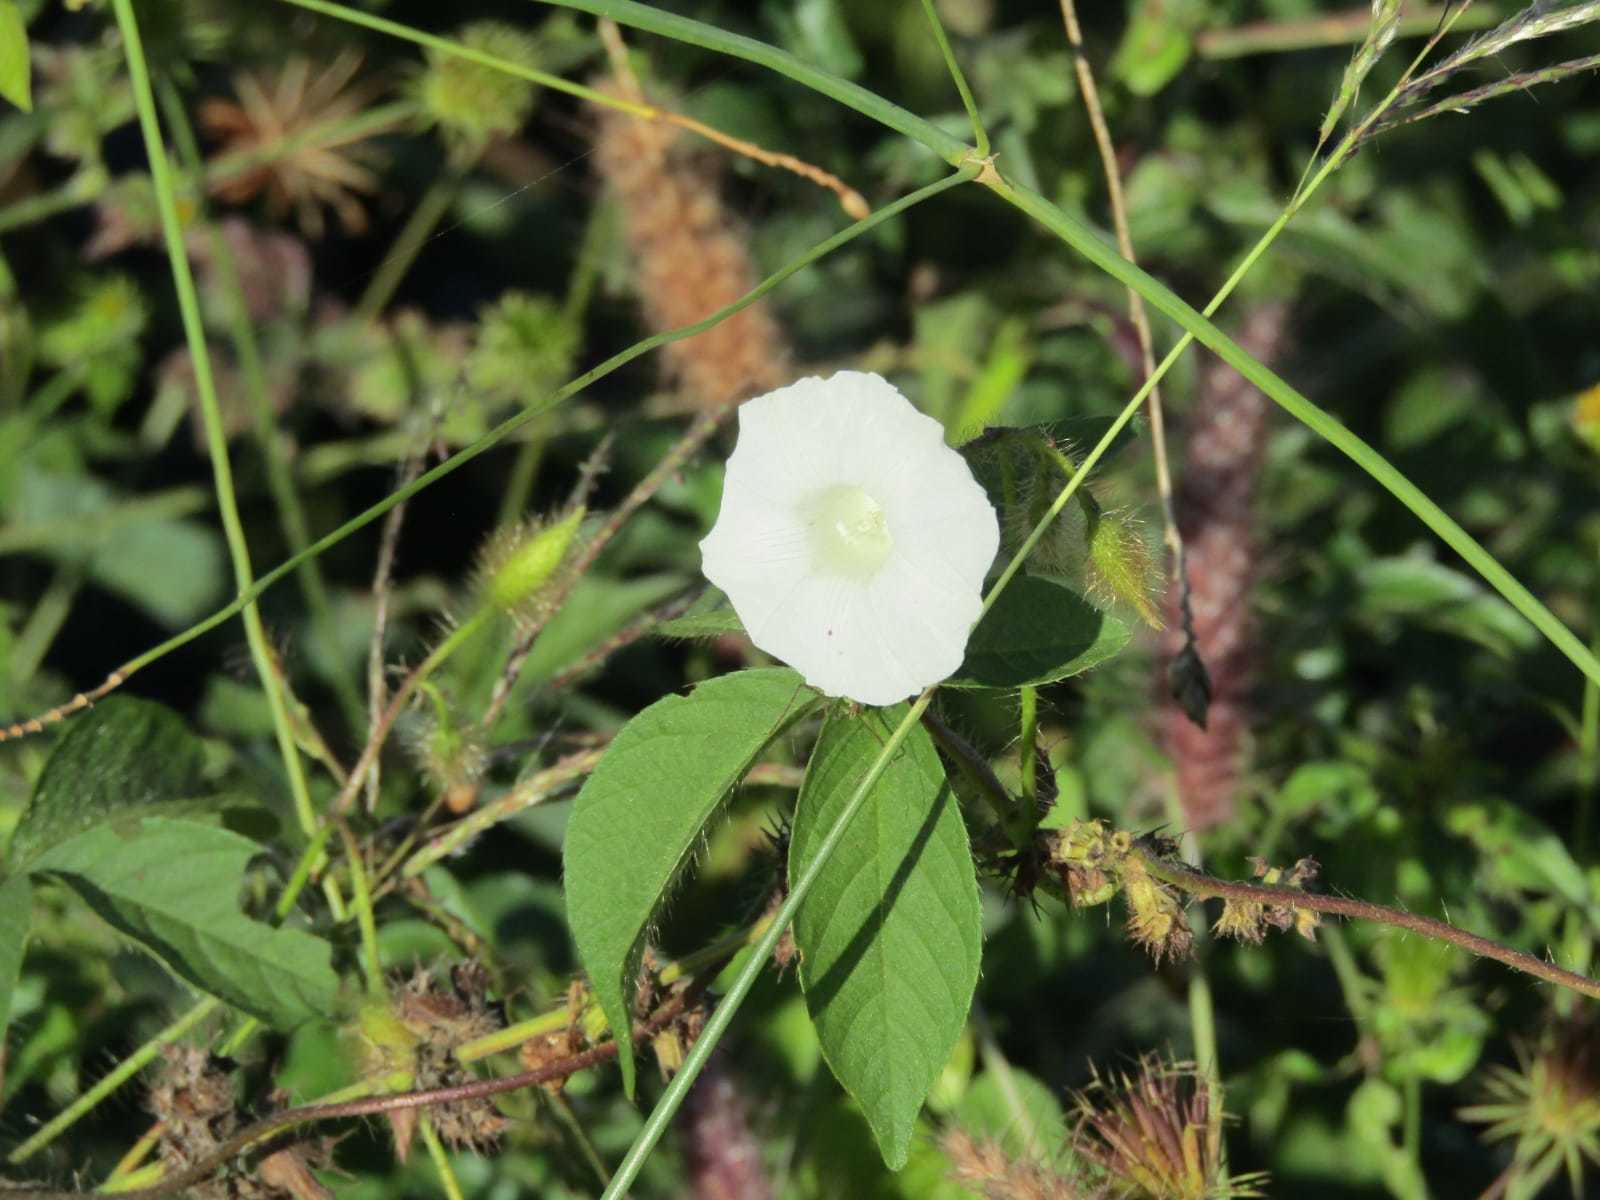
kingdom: Plantae
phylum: Tracheophyta
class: Magnoliopsida
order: Solanales
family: Convolvulaceae
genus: Distimake
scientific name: Distimake aegyptius
